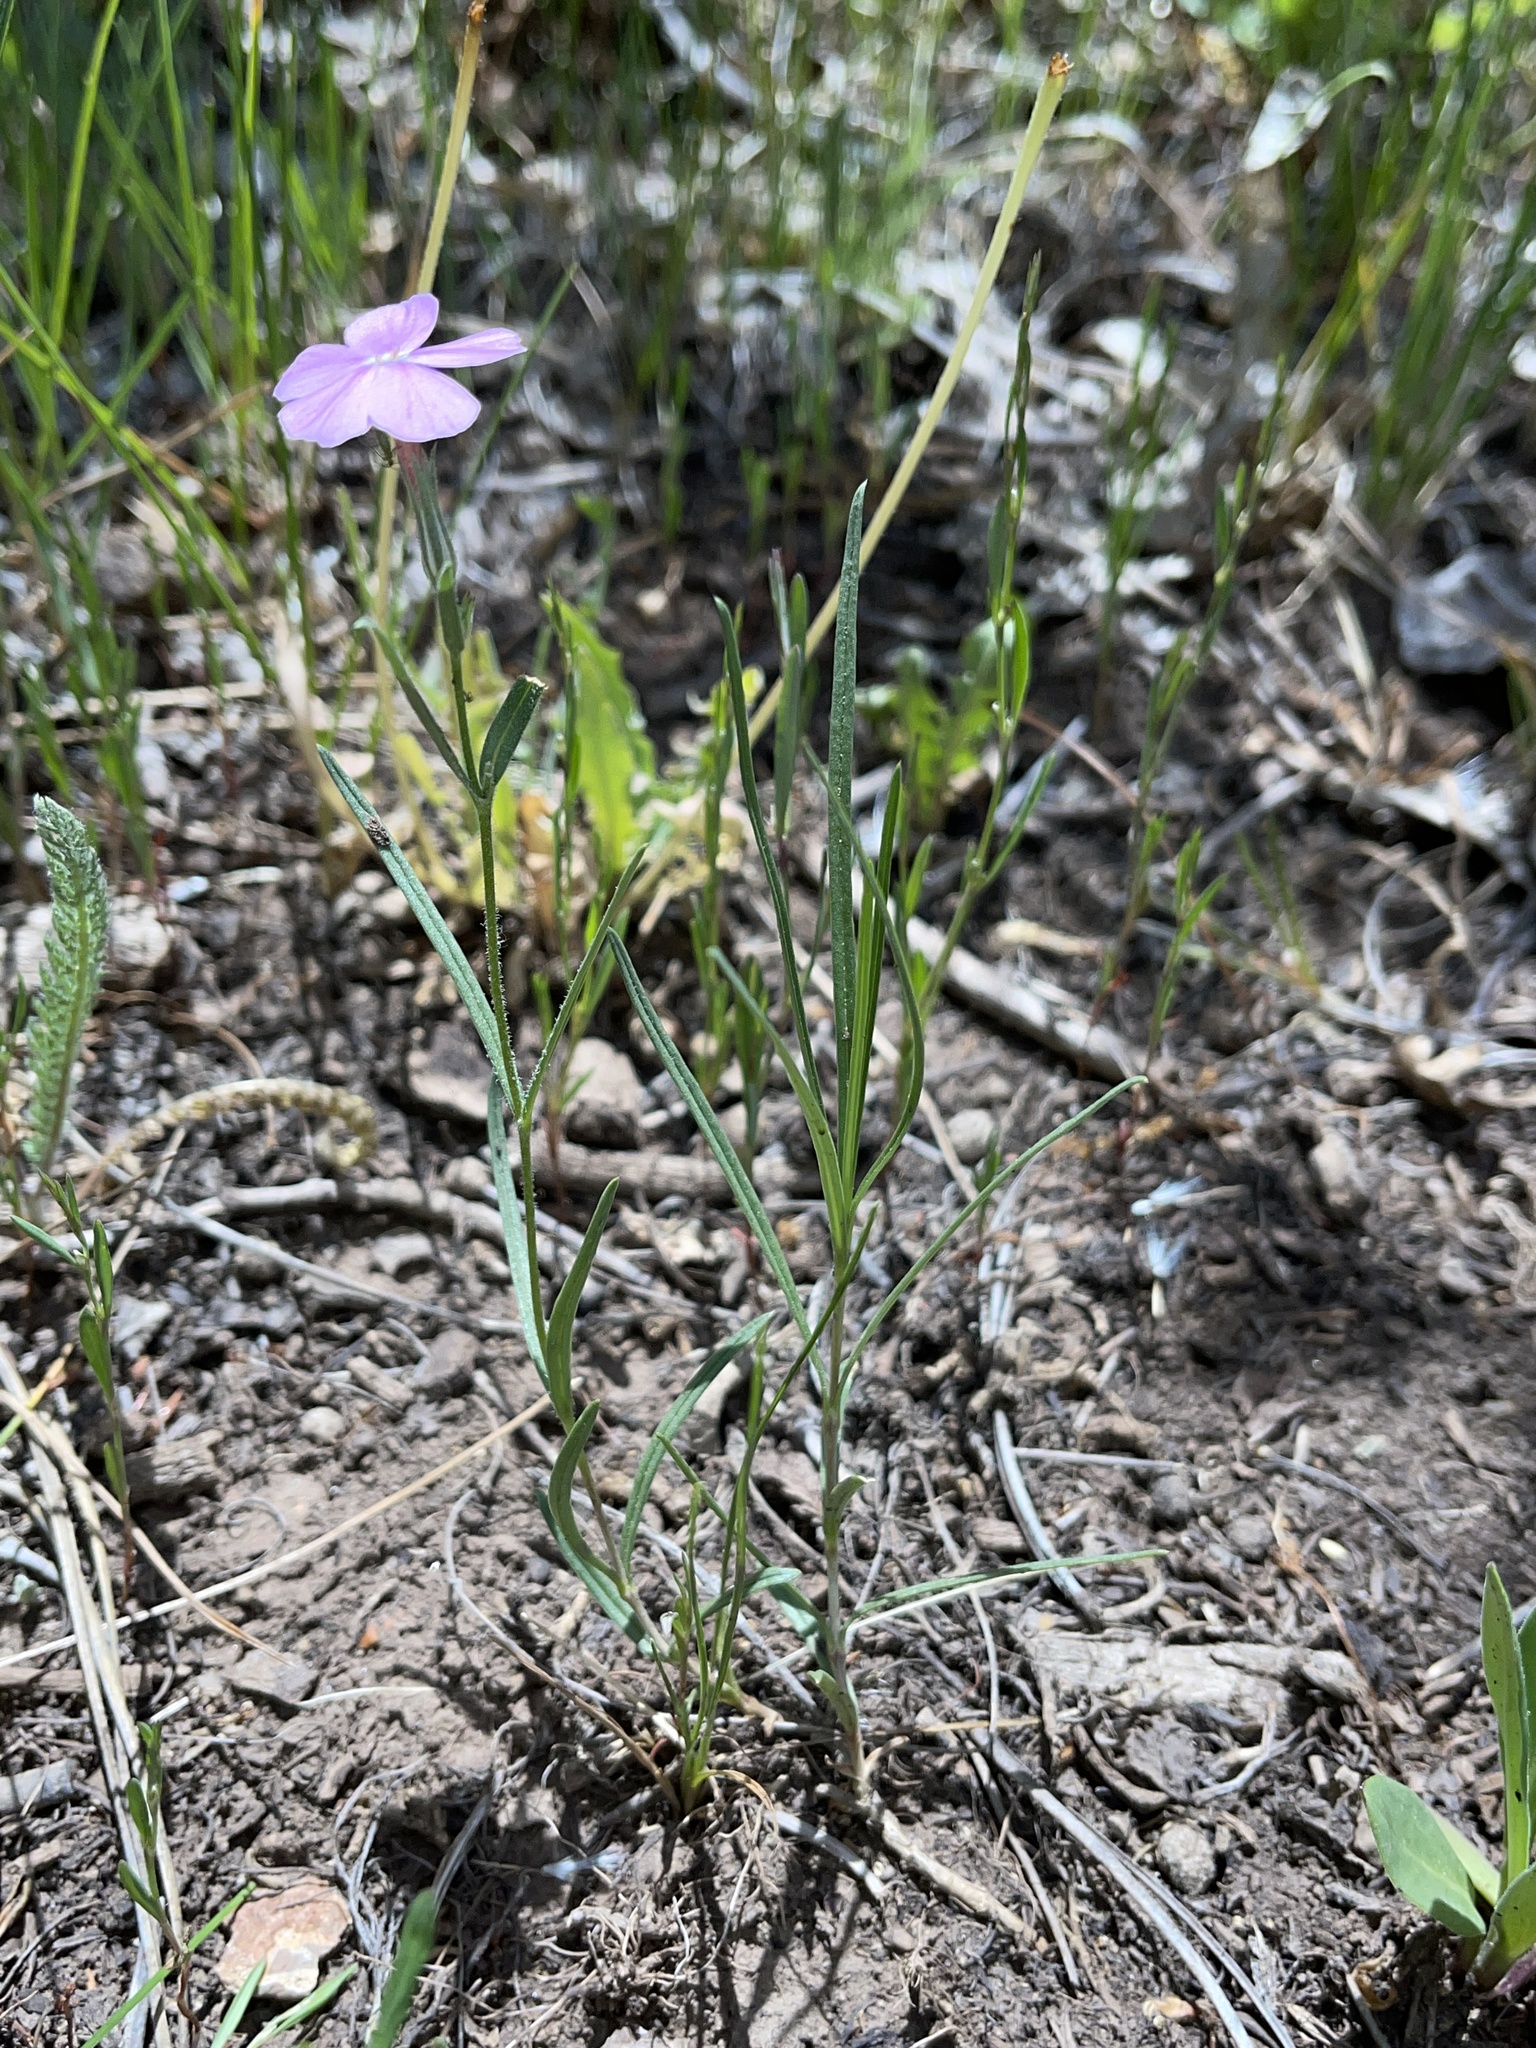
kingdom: Plantae
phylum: Tracheophyta
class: Magnoliopsida
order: Ericales
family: Polemoniaceae
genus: Phlox
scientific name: Phlox longifolia
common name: Longleaf phlox
